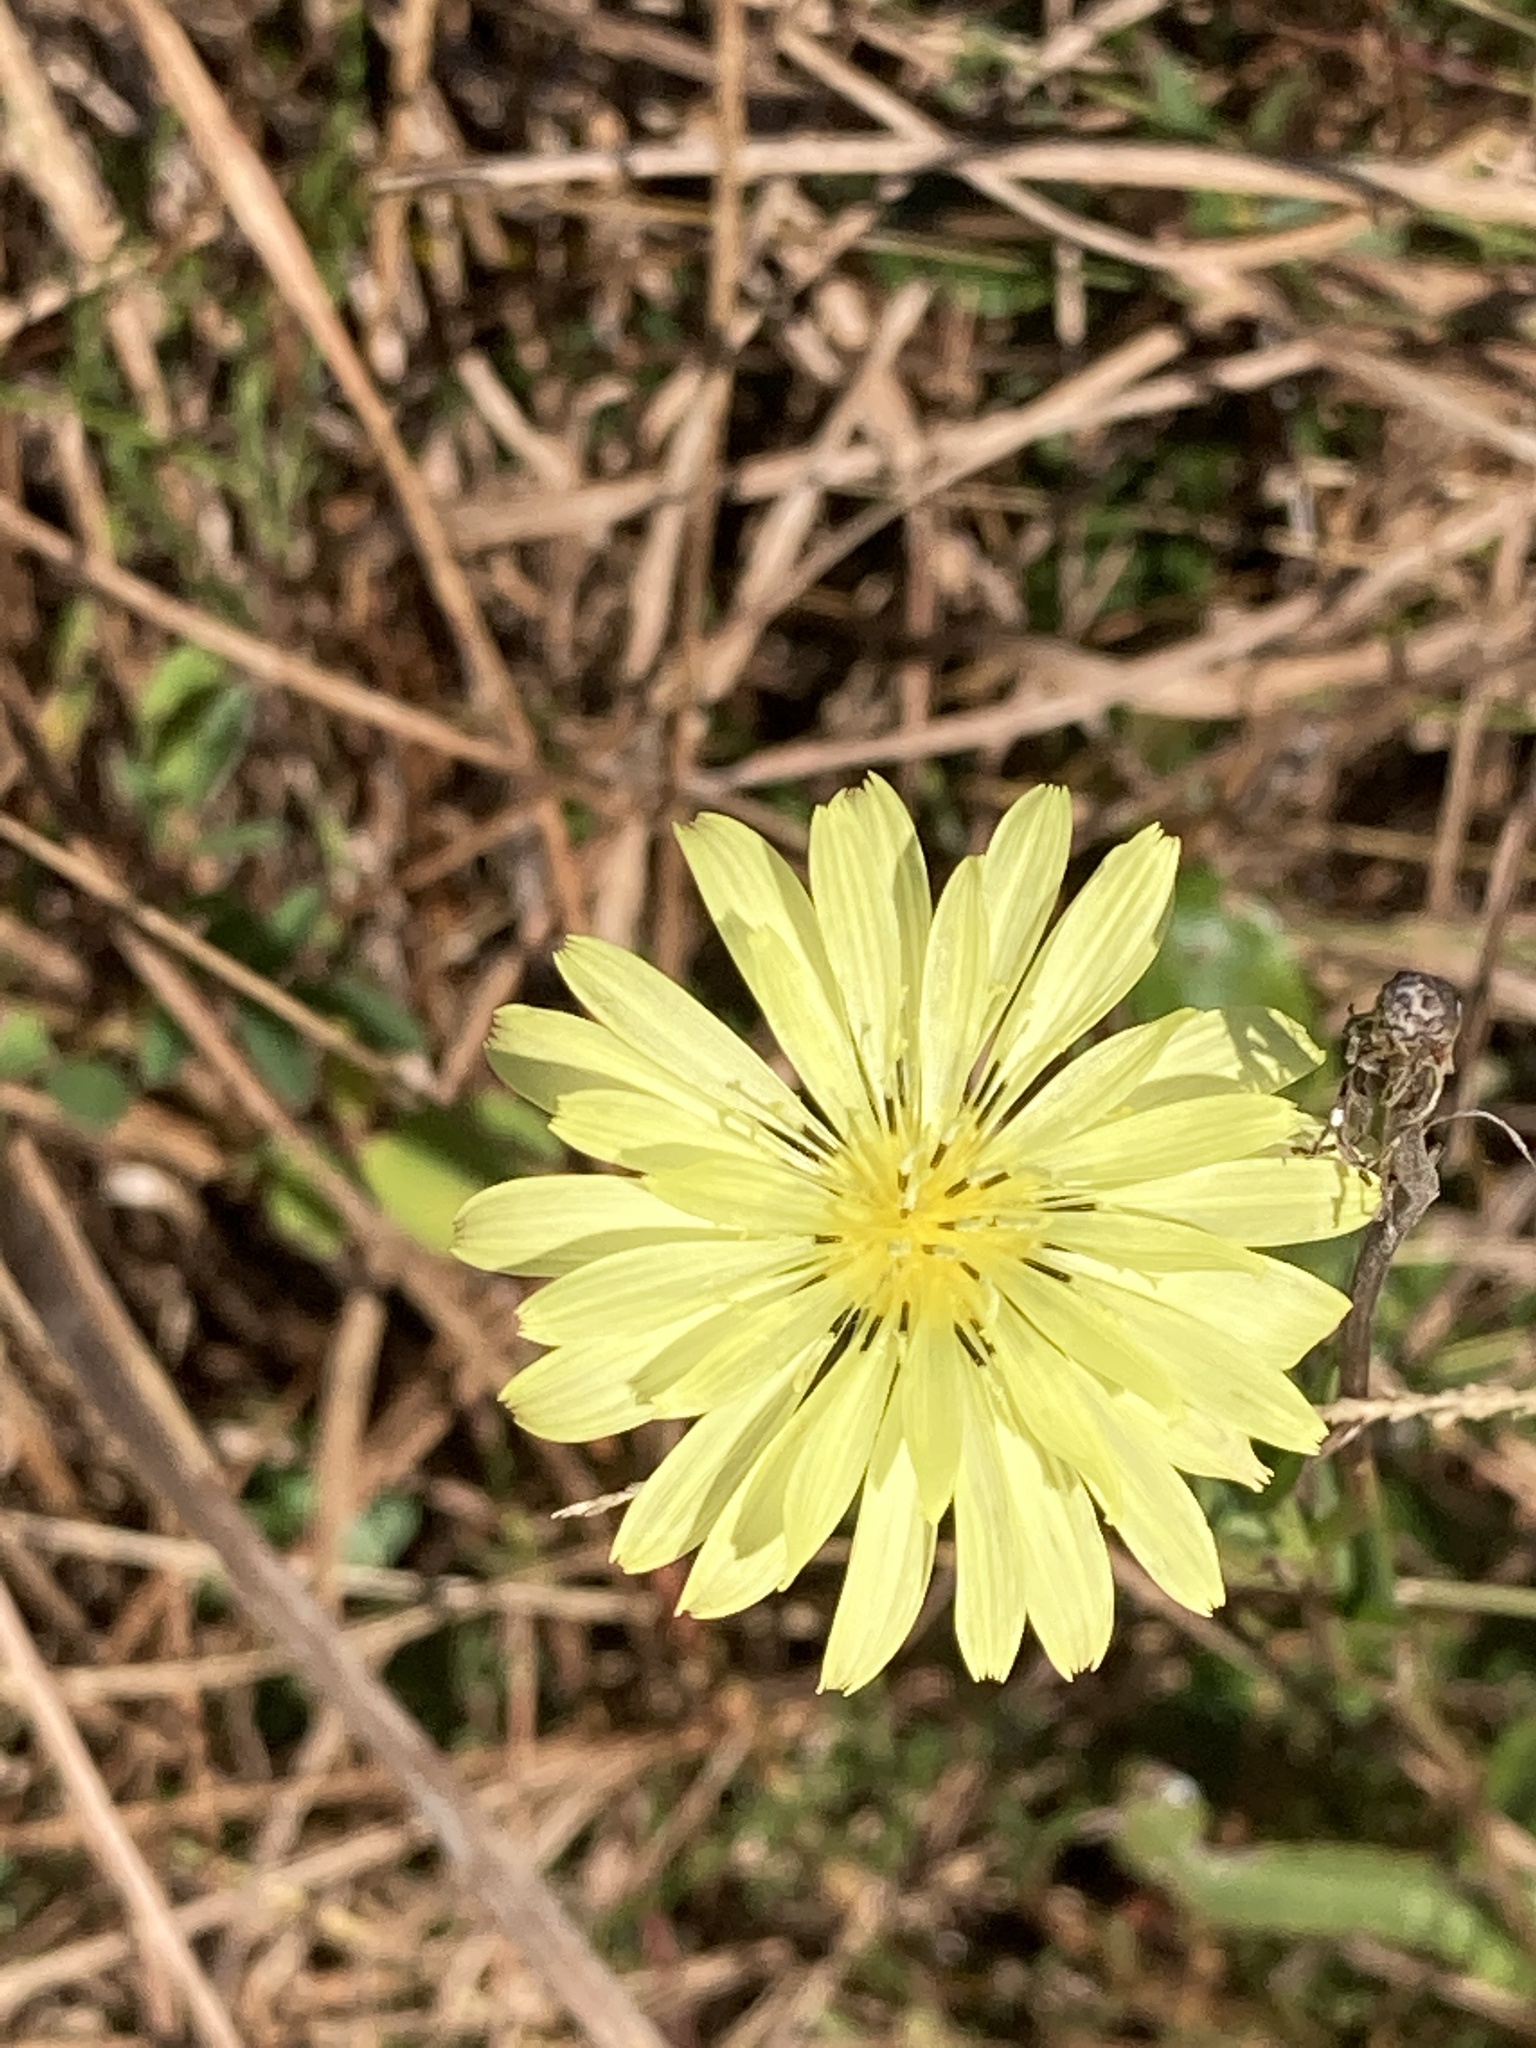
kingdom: Plantae
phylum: Tracheophyta
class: Magnoliopsida
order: Asterales
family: Asteraceae
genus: Pyrrhopappus
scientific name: Pyrrhopappus carolinianus
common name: Carolina desert-chicory
